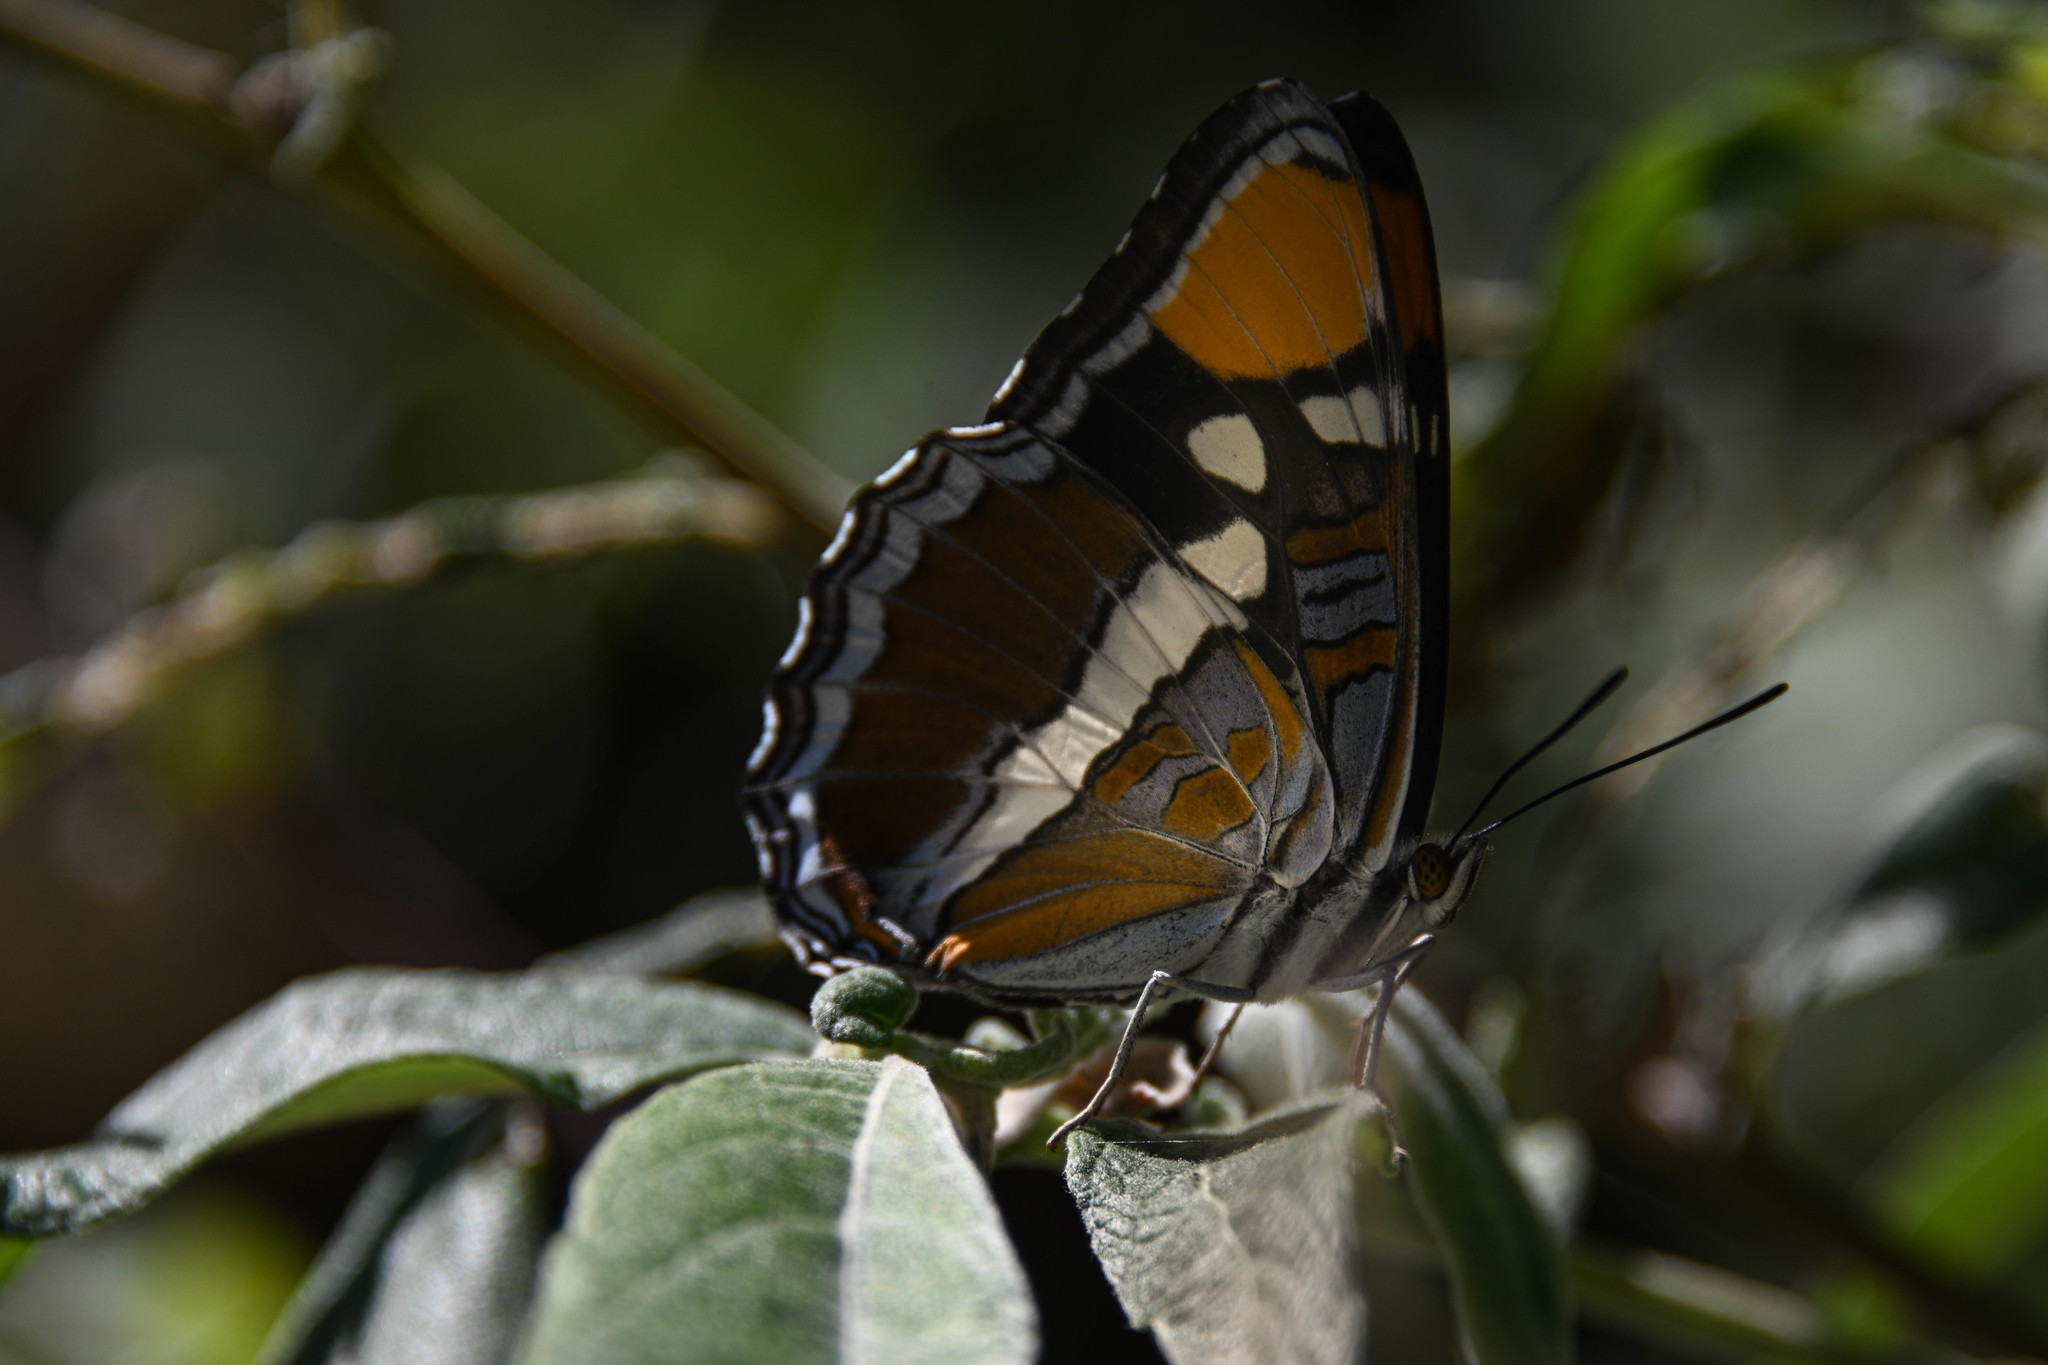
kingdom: Animalia
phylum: Arthropoda
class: Insecta
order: Lepidoptera
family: Nymphalidae
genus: Limenitis
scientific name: Limenitis bredowii
